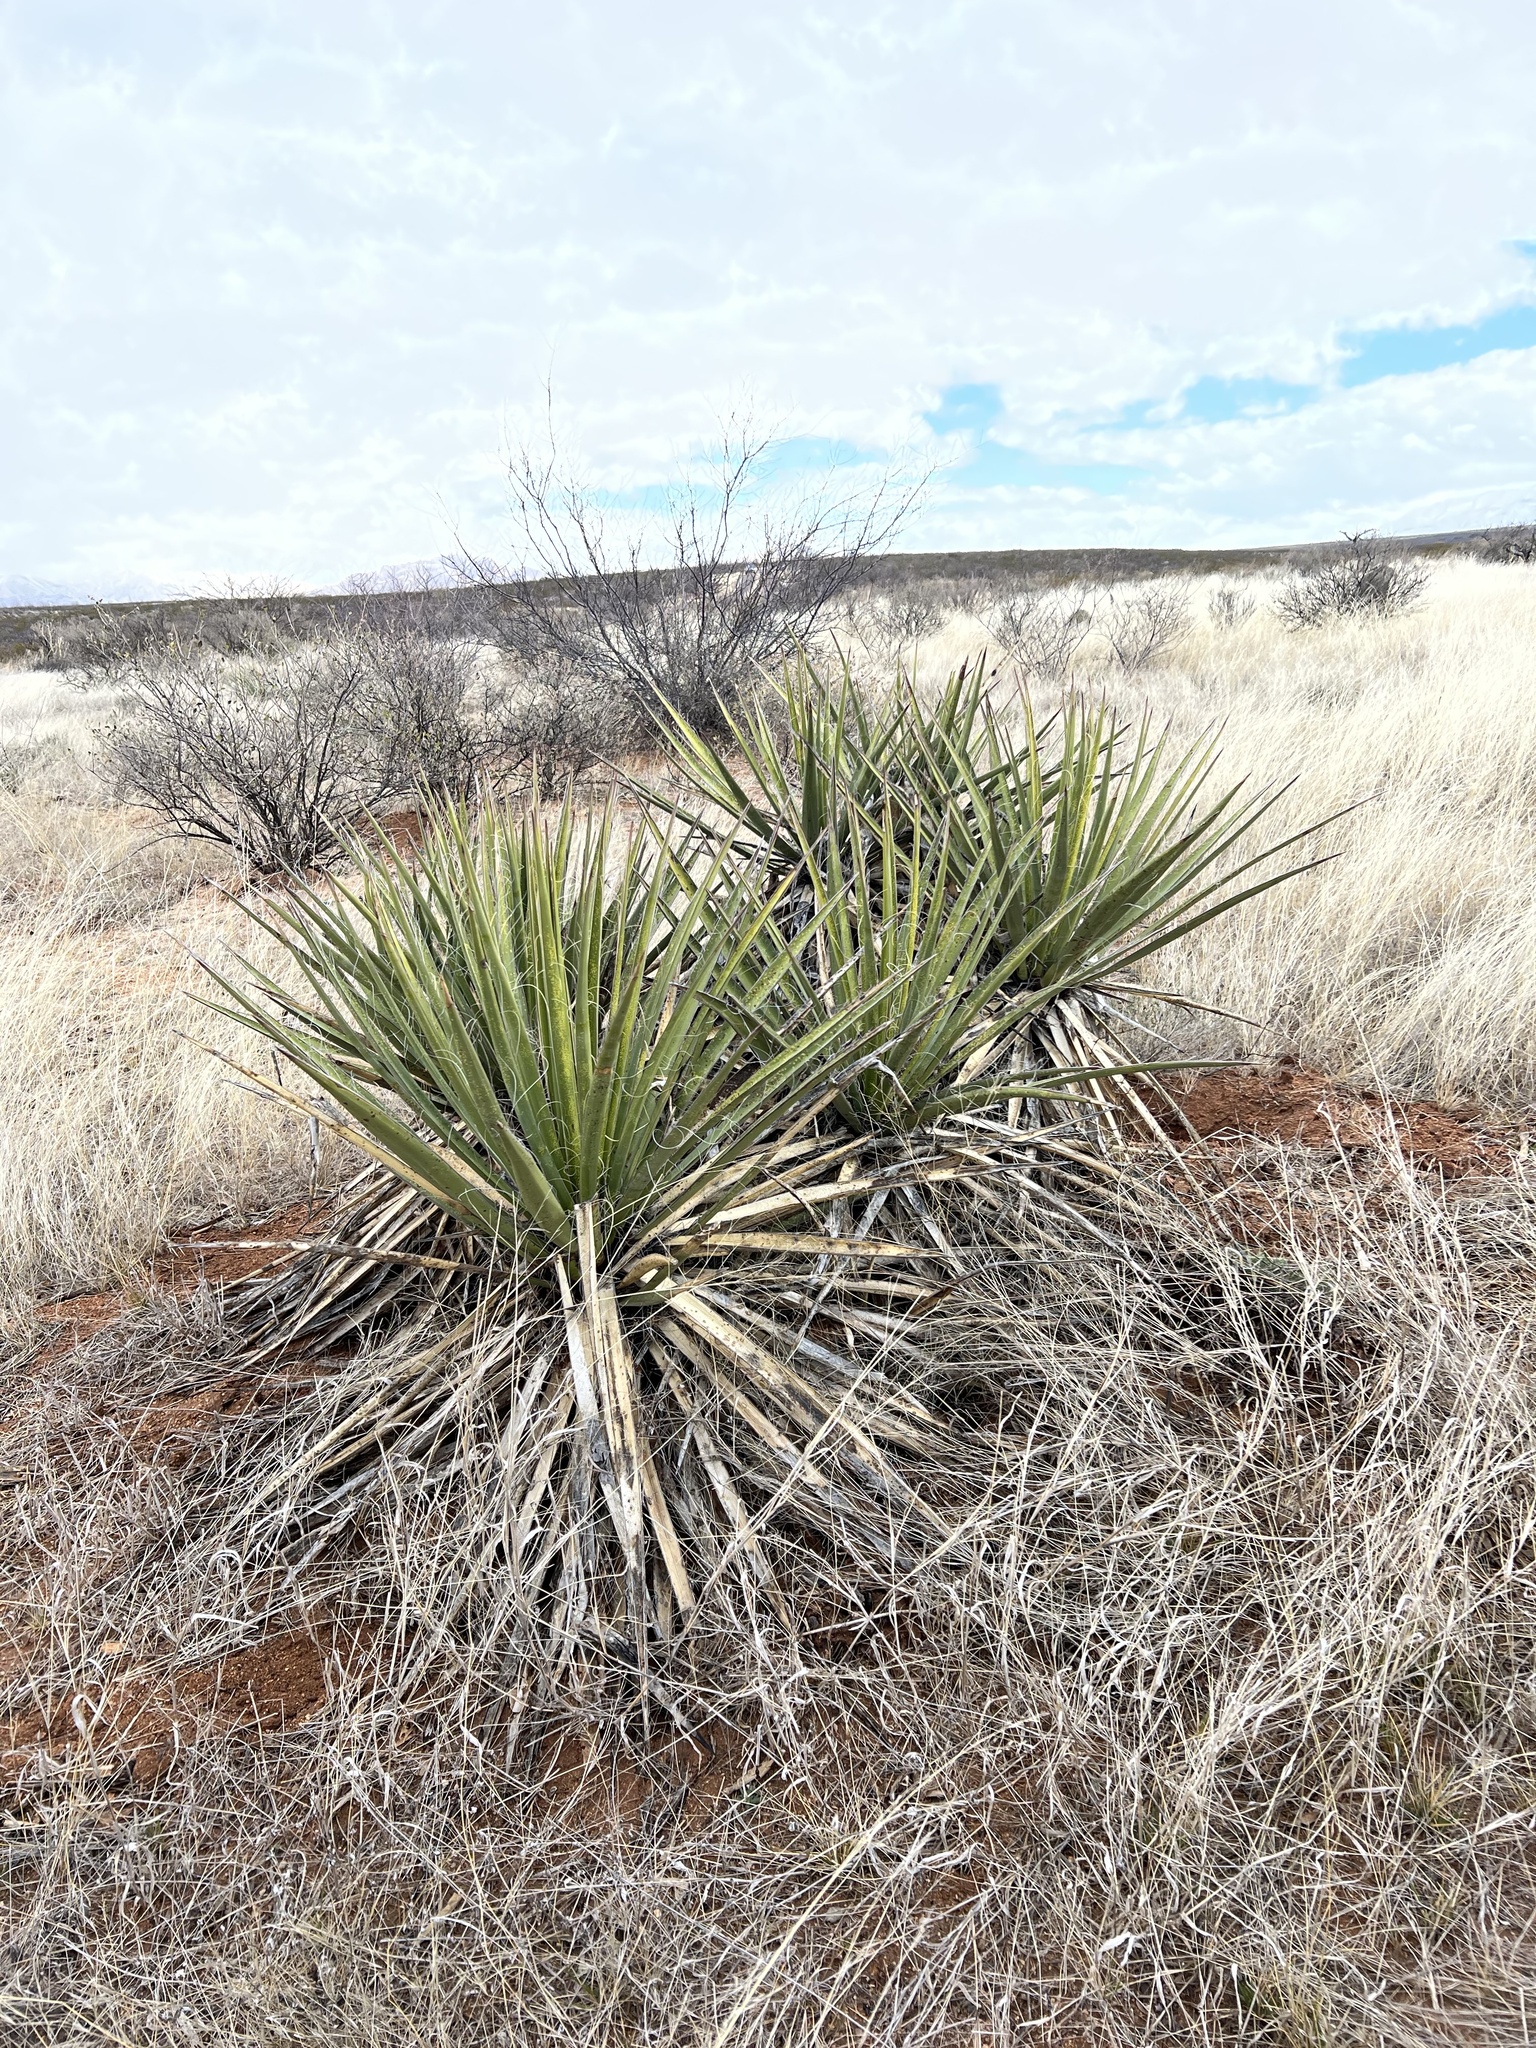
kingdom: Plantae
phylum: Tracheophyta
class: Liliopsida
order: Asparagales
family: Asparagaceae
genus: Yucca
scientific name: Yucca baccata
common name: Banana yucca
